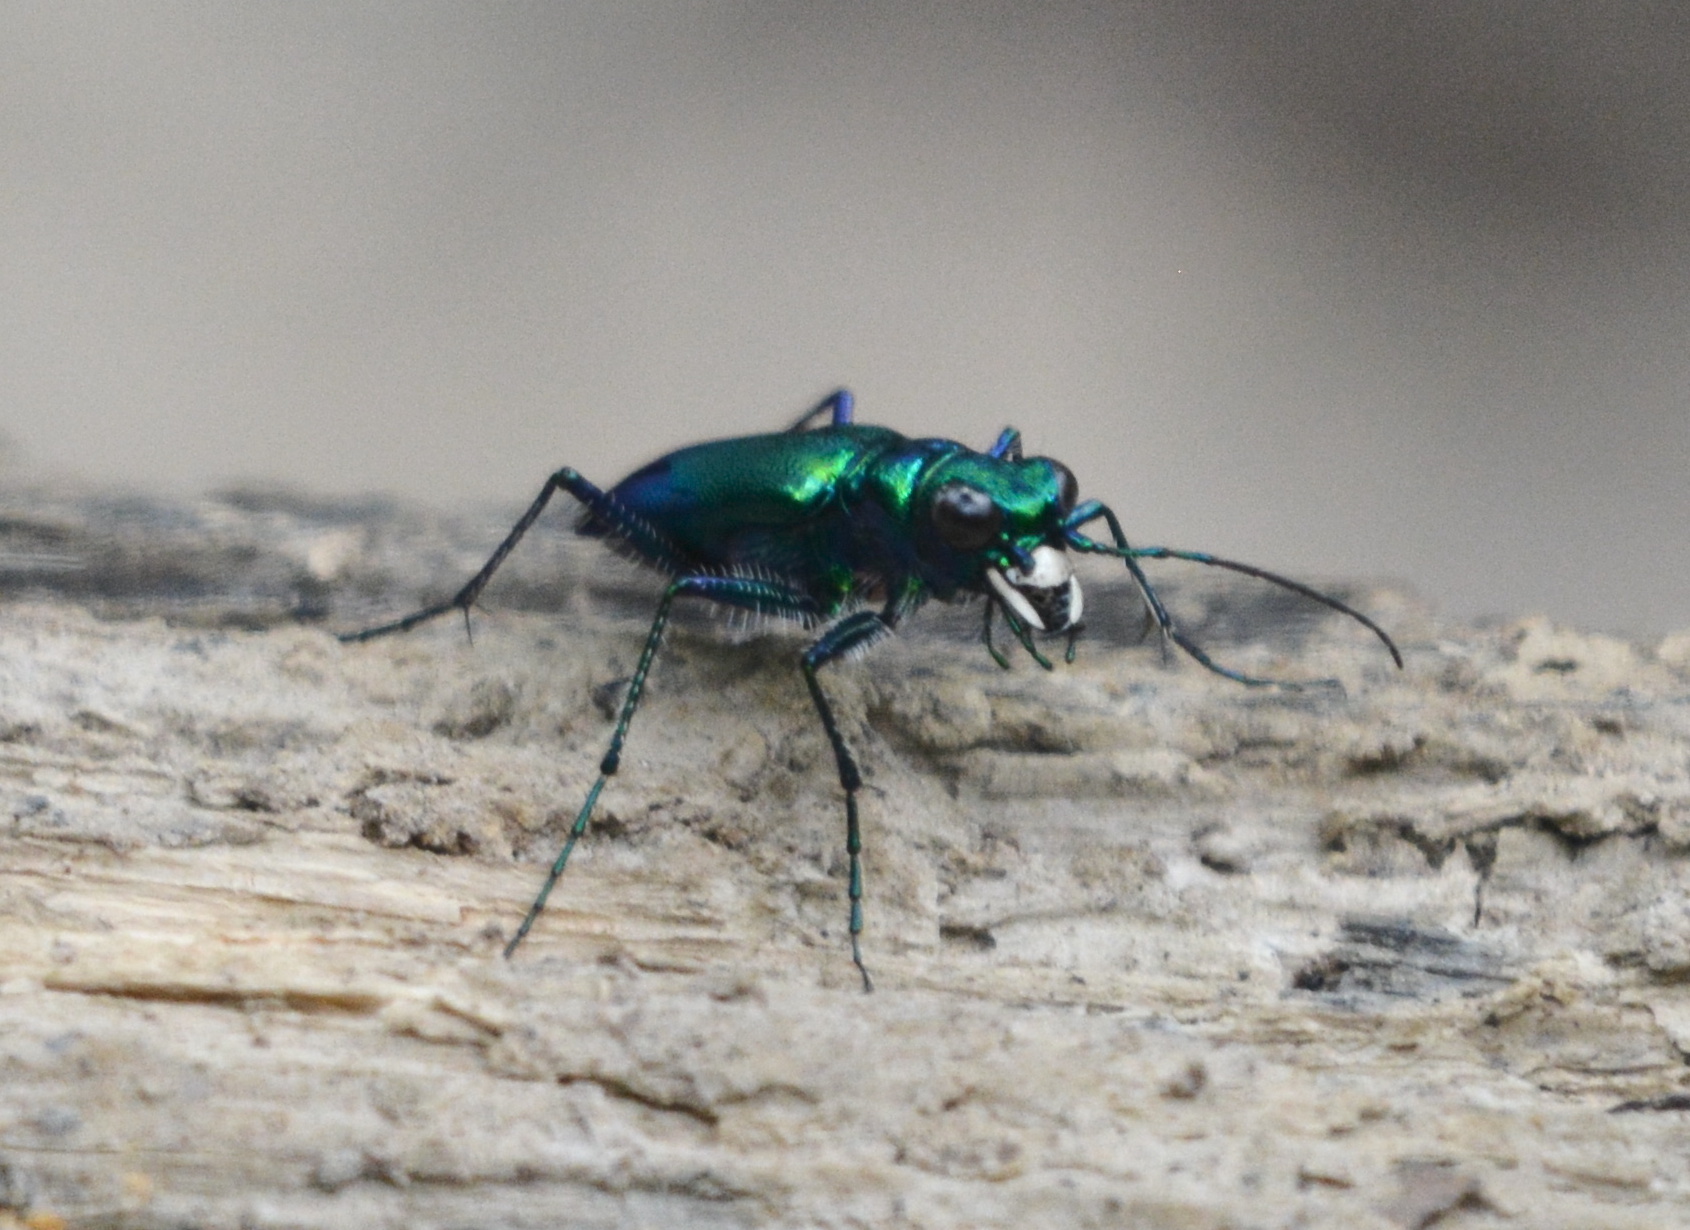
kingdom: Animalia
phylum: Arthropoda
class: Insecta
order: Coleoptera
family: Carabidae
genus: Cicindela
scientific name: Cicindela sexguttata
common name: Six-spotted tiger beetle
